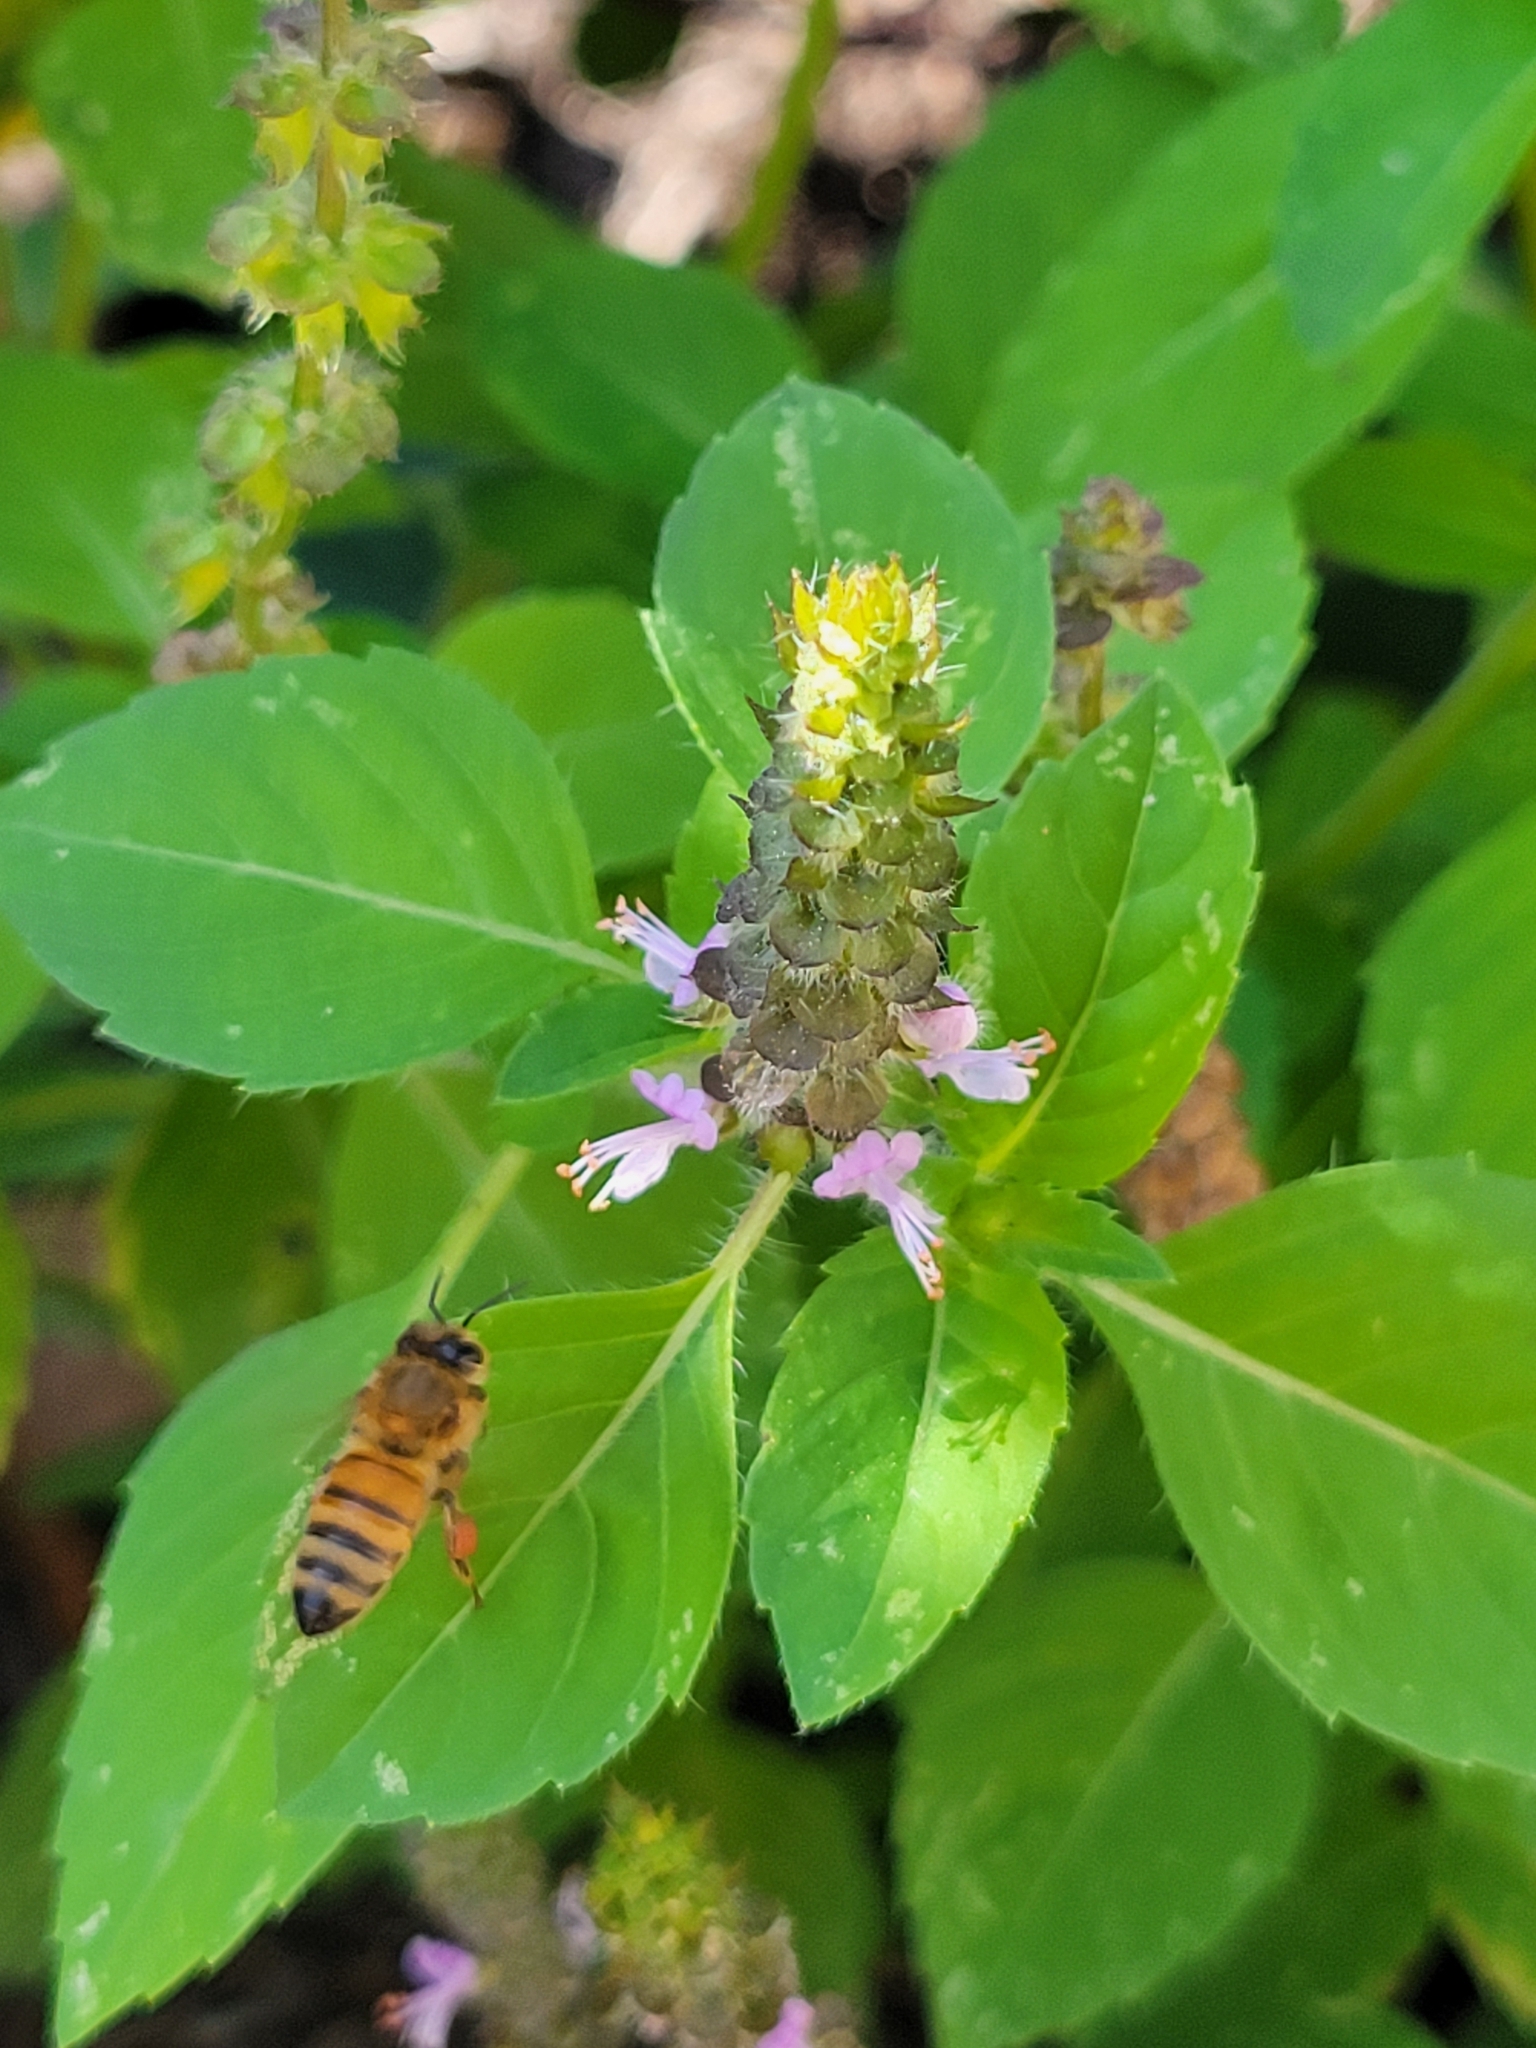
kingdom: Animalia
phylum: Arthropoda
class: Insecta
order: Hymenoptera
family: Apidae
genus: Apis
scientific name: Apis mellifera
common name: Honey bee
